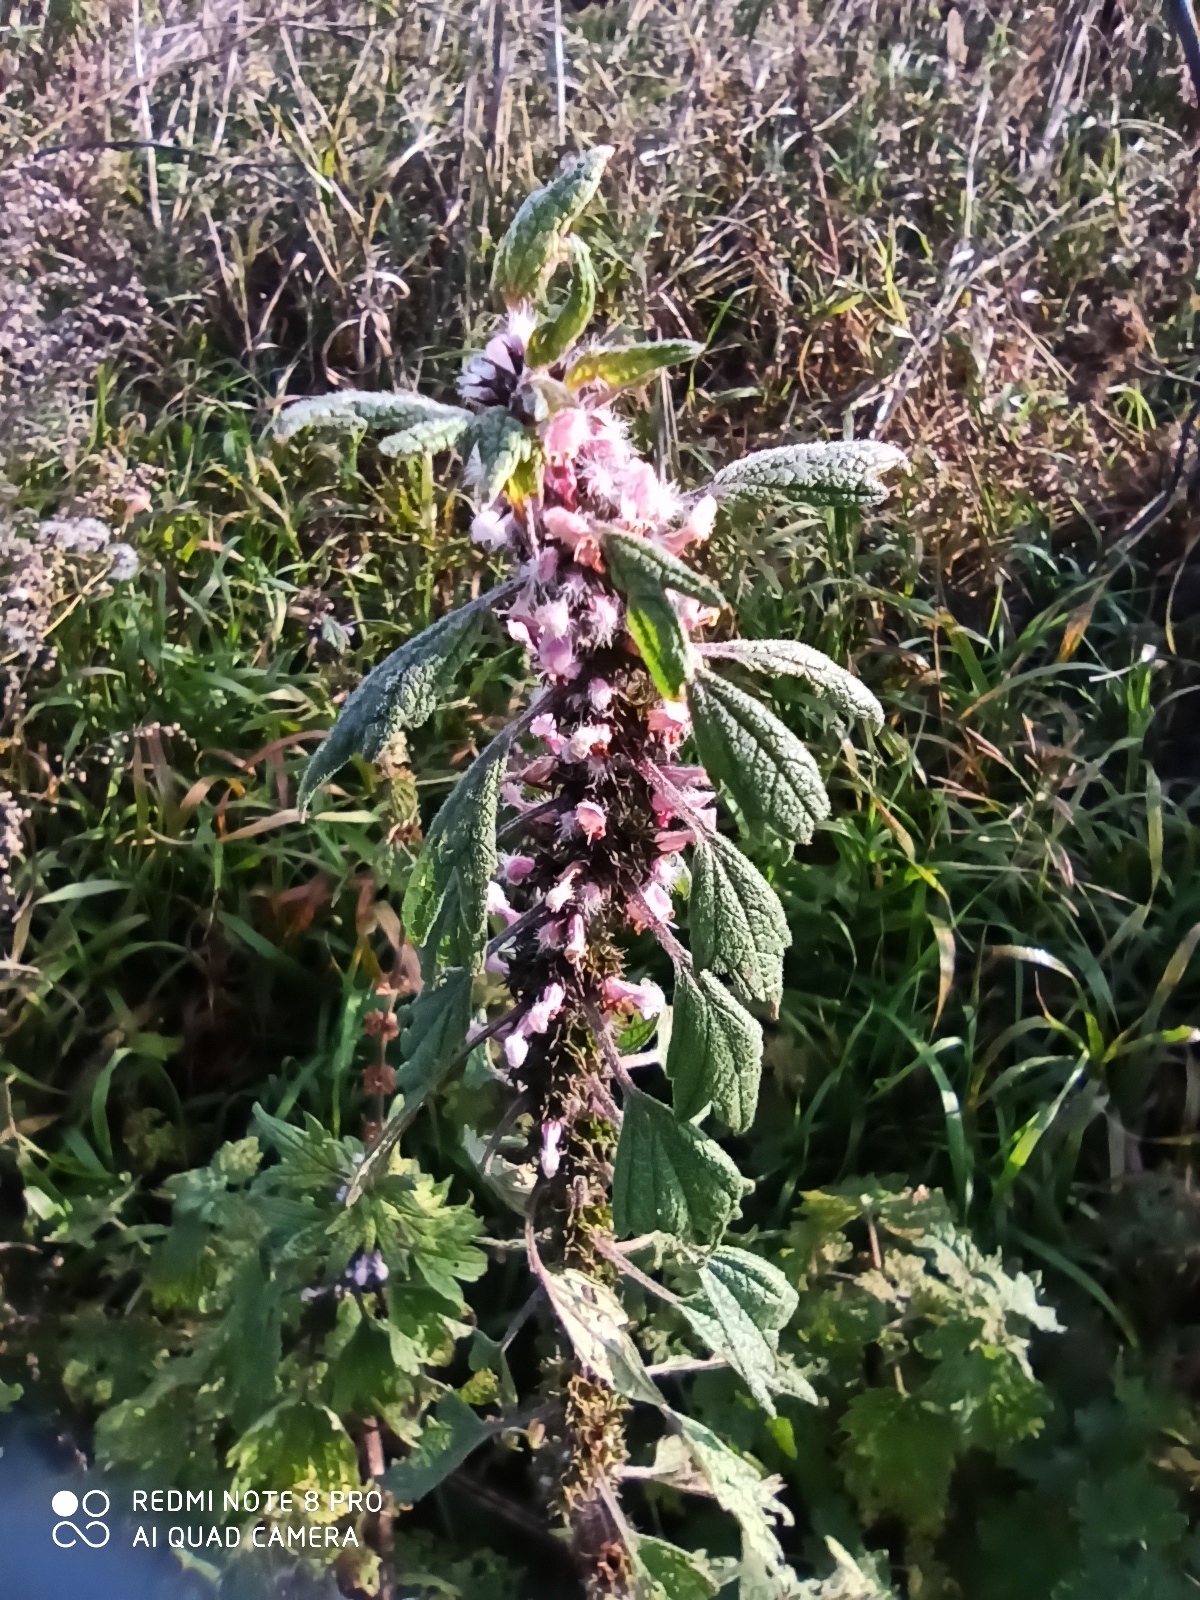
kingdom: Plantae
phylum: Tracheophyta
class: Magnoliopsida
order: Lamiales
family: Lamiaceae
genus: Leonurus
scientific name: Leonurus quinquelobatus
